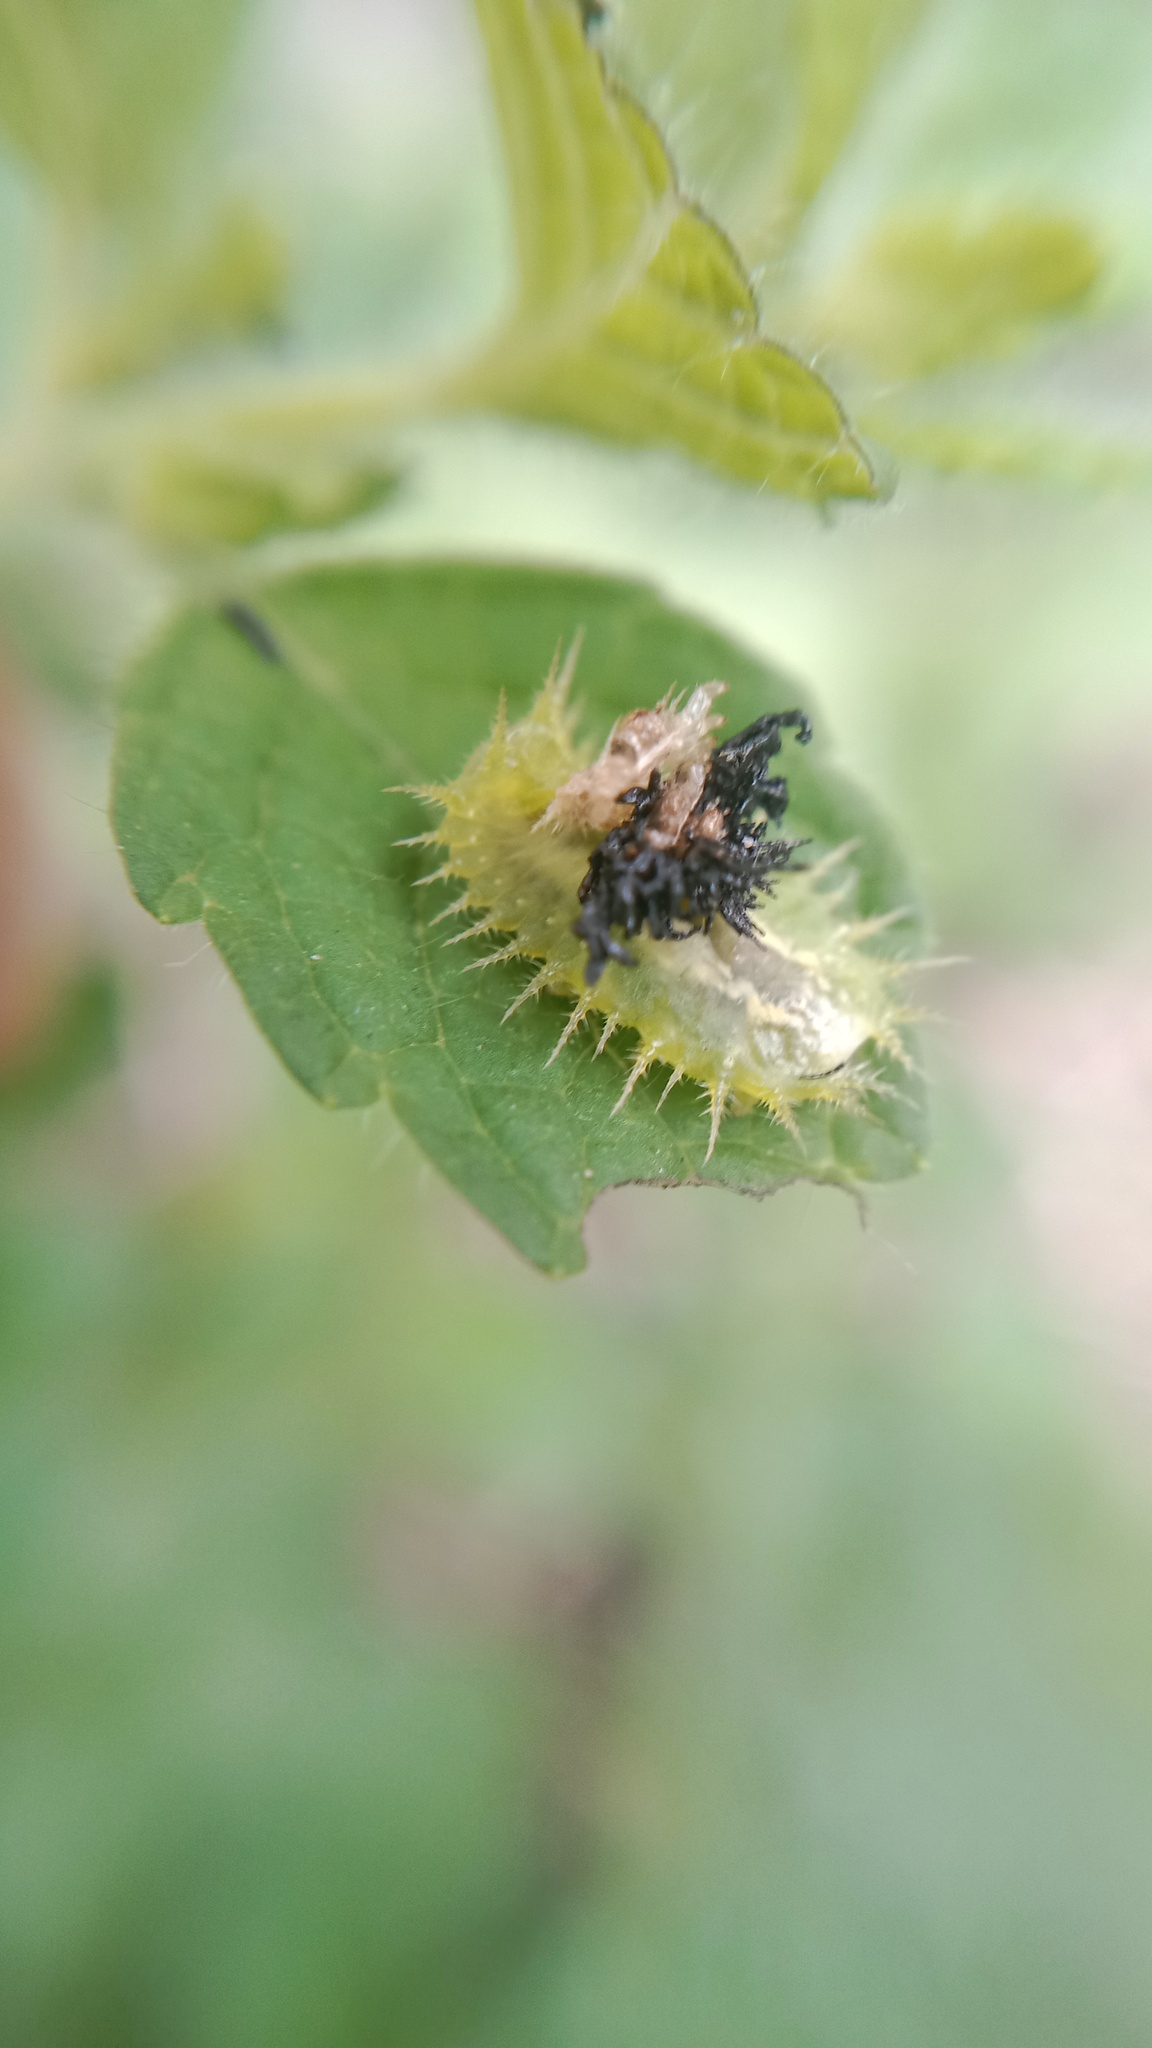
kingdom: Animalia
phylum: Arthropoda
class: Insecta
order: Coleoptera
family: Chrysomelidae
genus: Cassida
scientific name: Cassida viridis
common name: Green tortoise beetle
